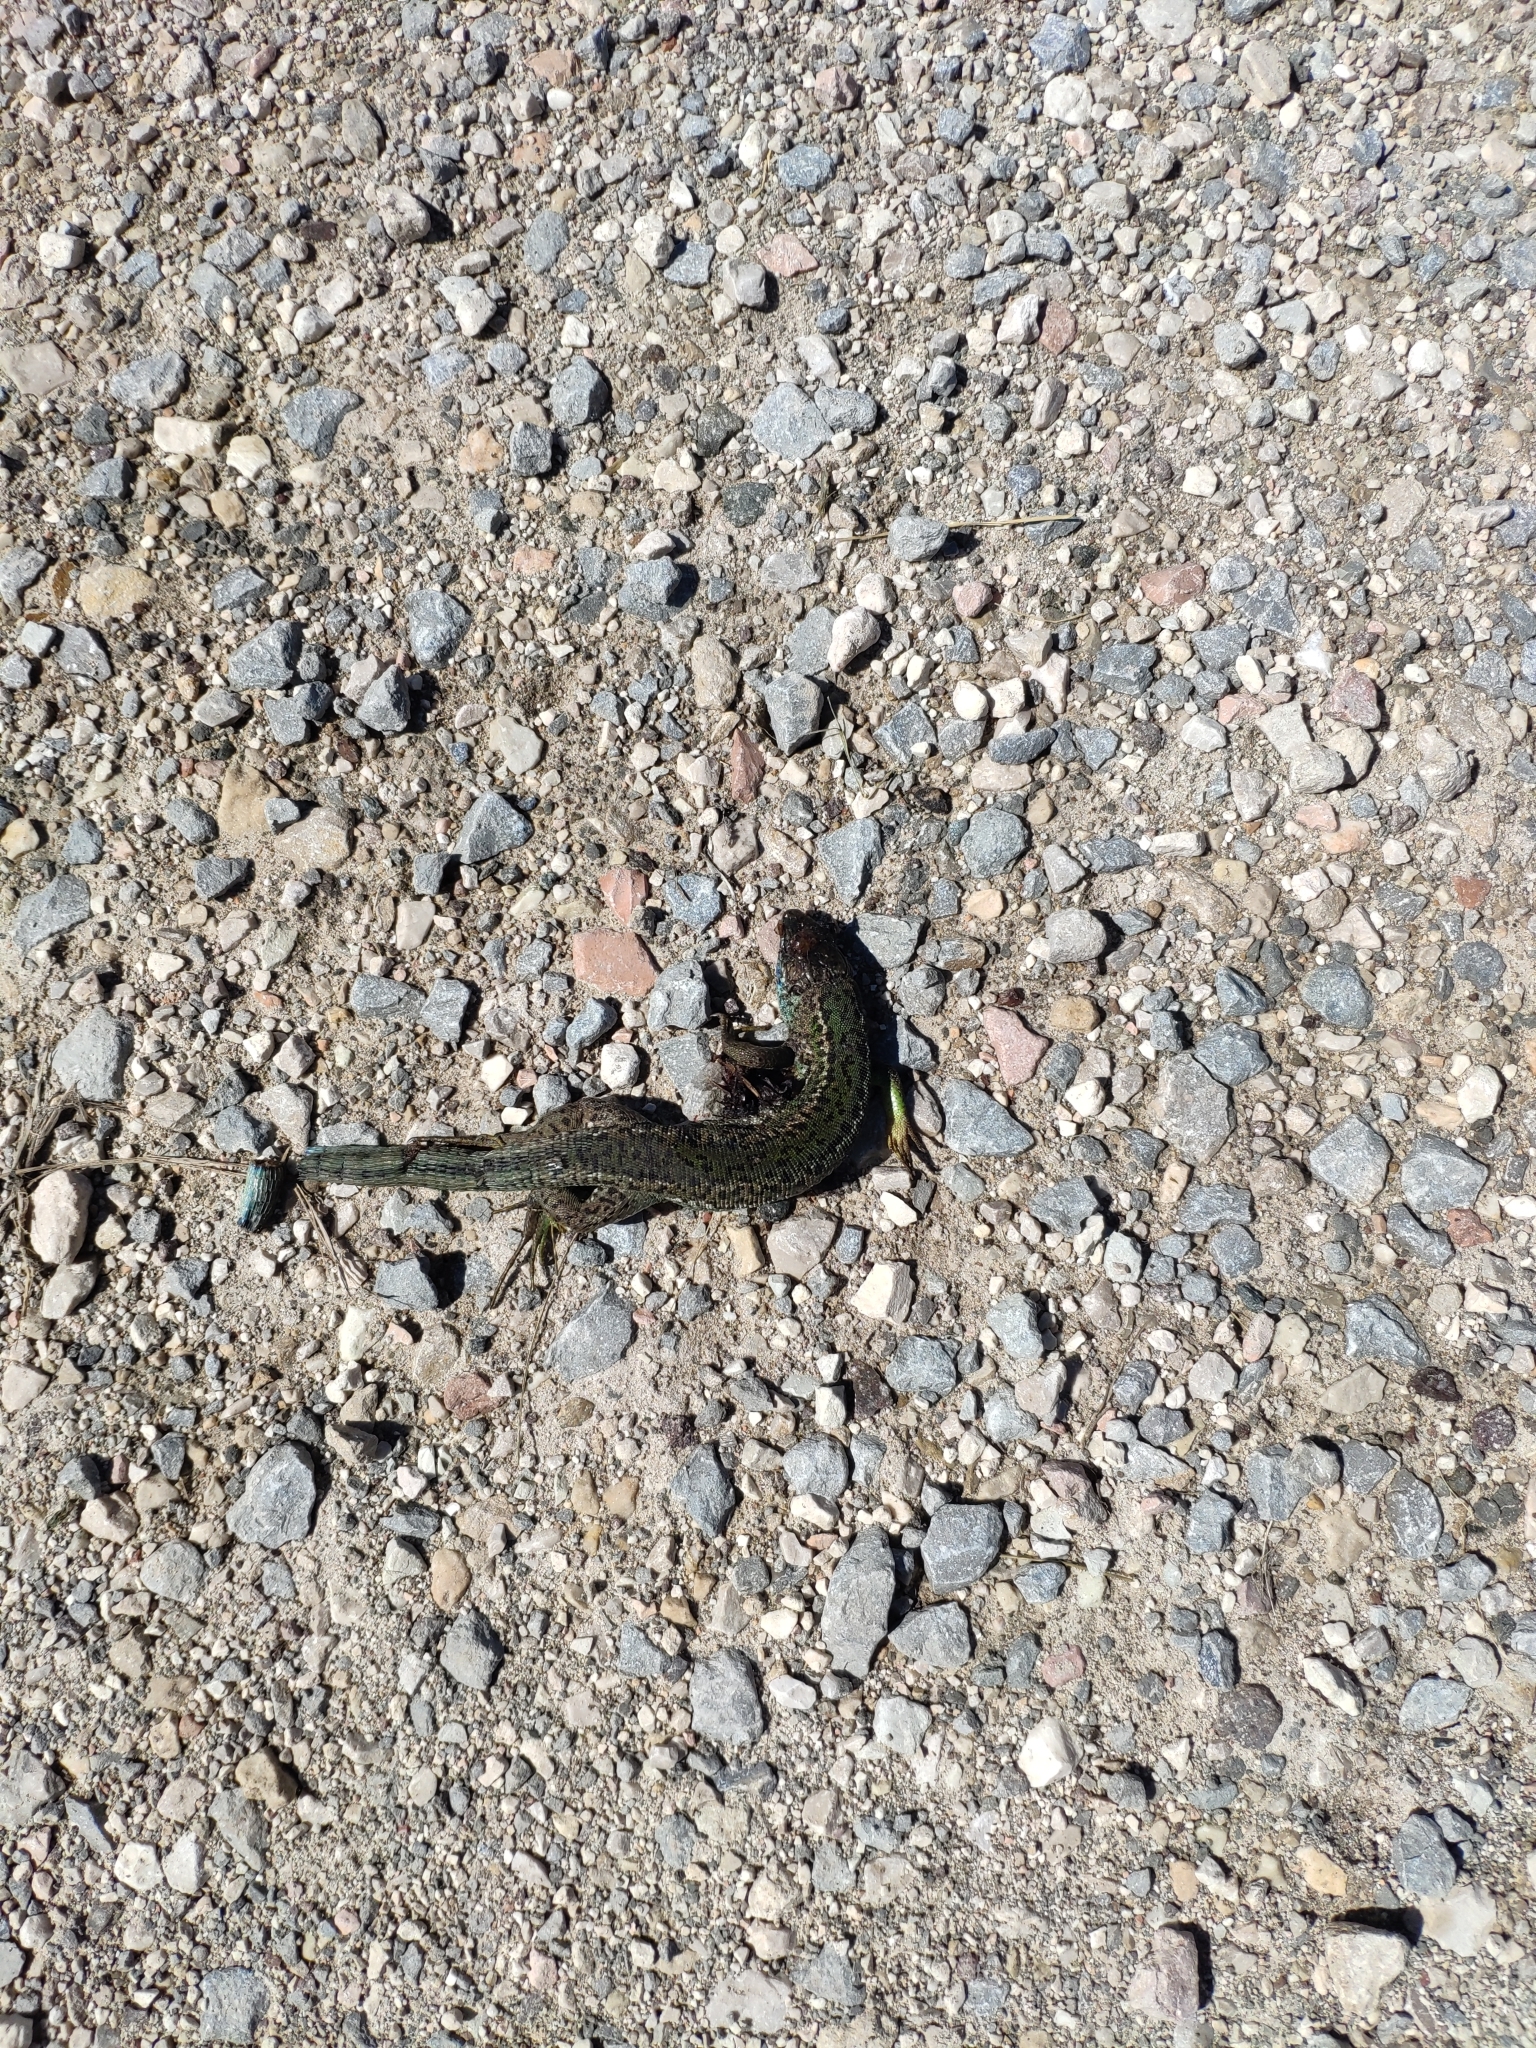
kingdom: Animalia
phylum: Chordata
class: Squamata
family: Lacertidae
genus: Lacerta
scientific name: Lacerta bilineata
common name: Western green lizard
